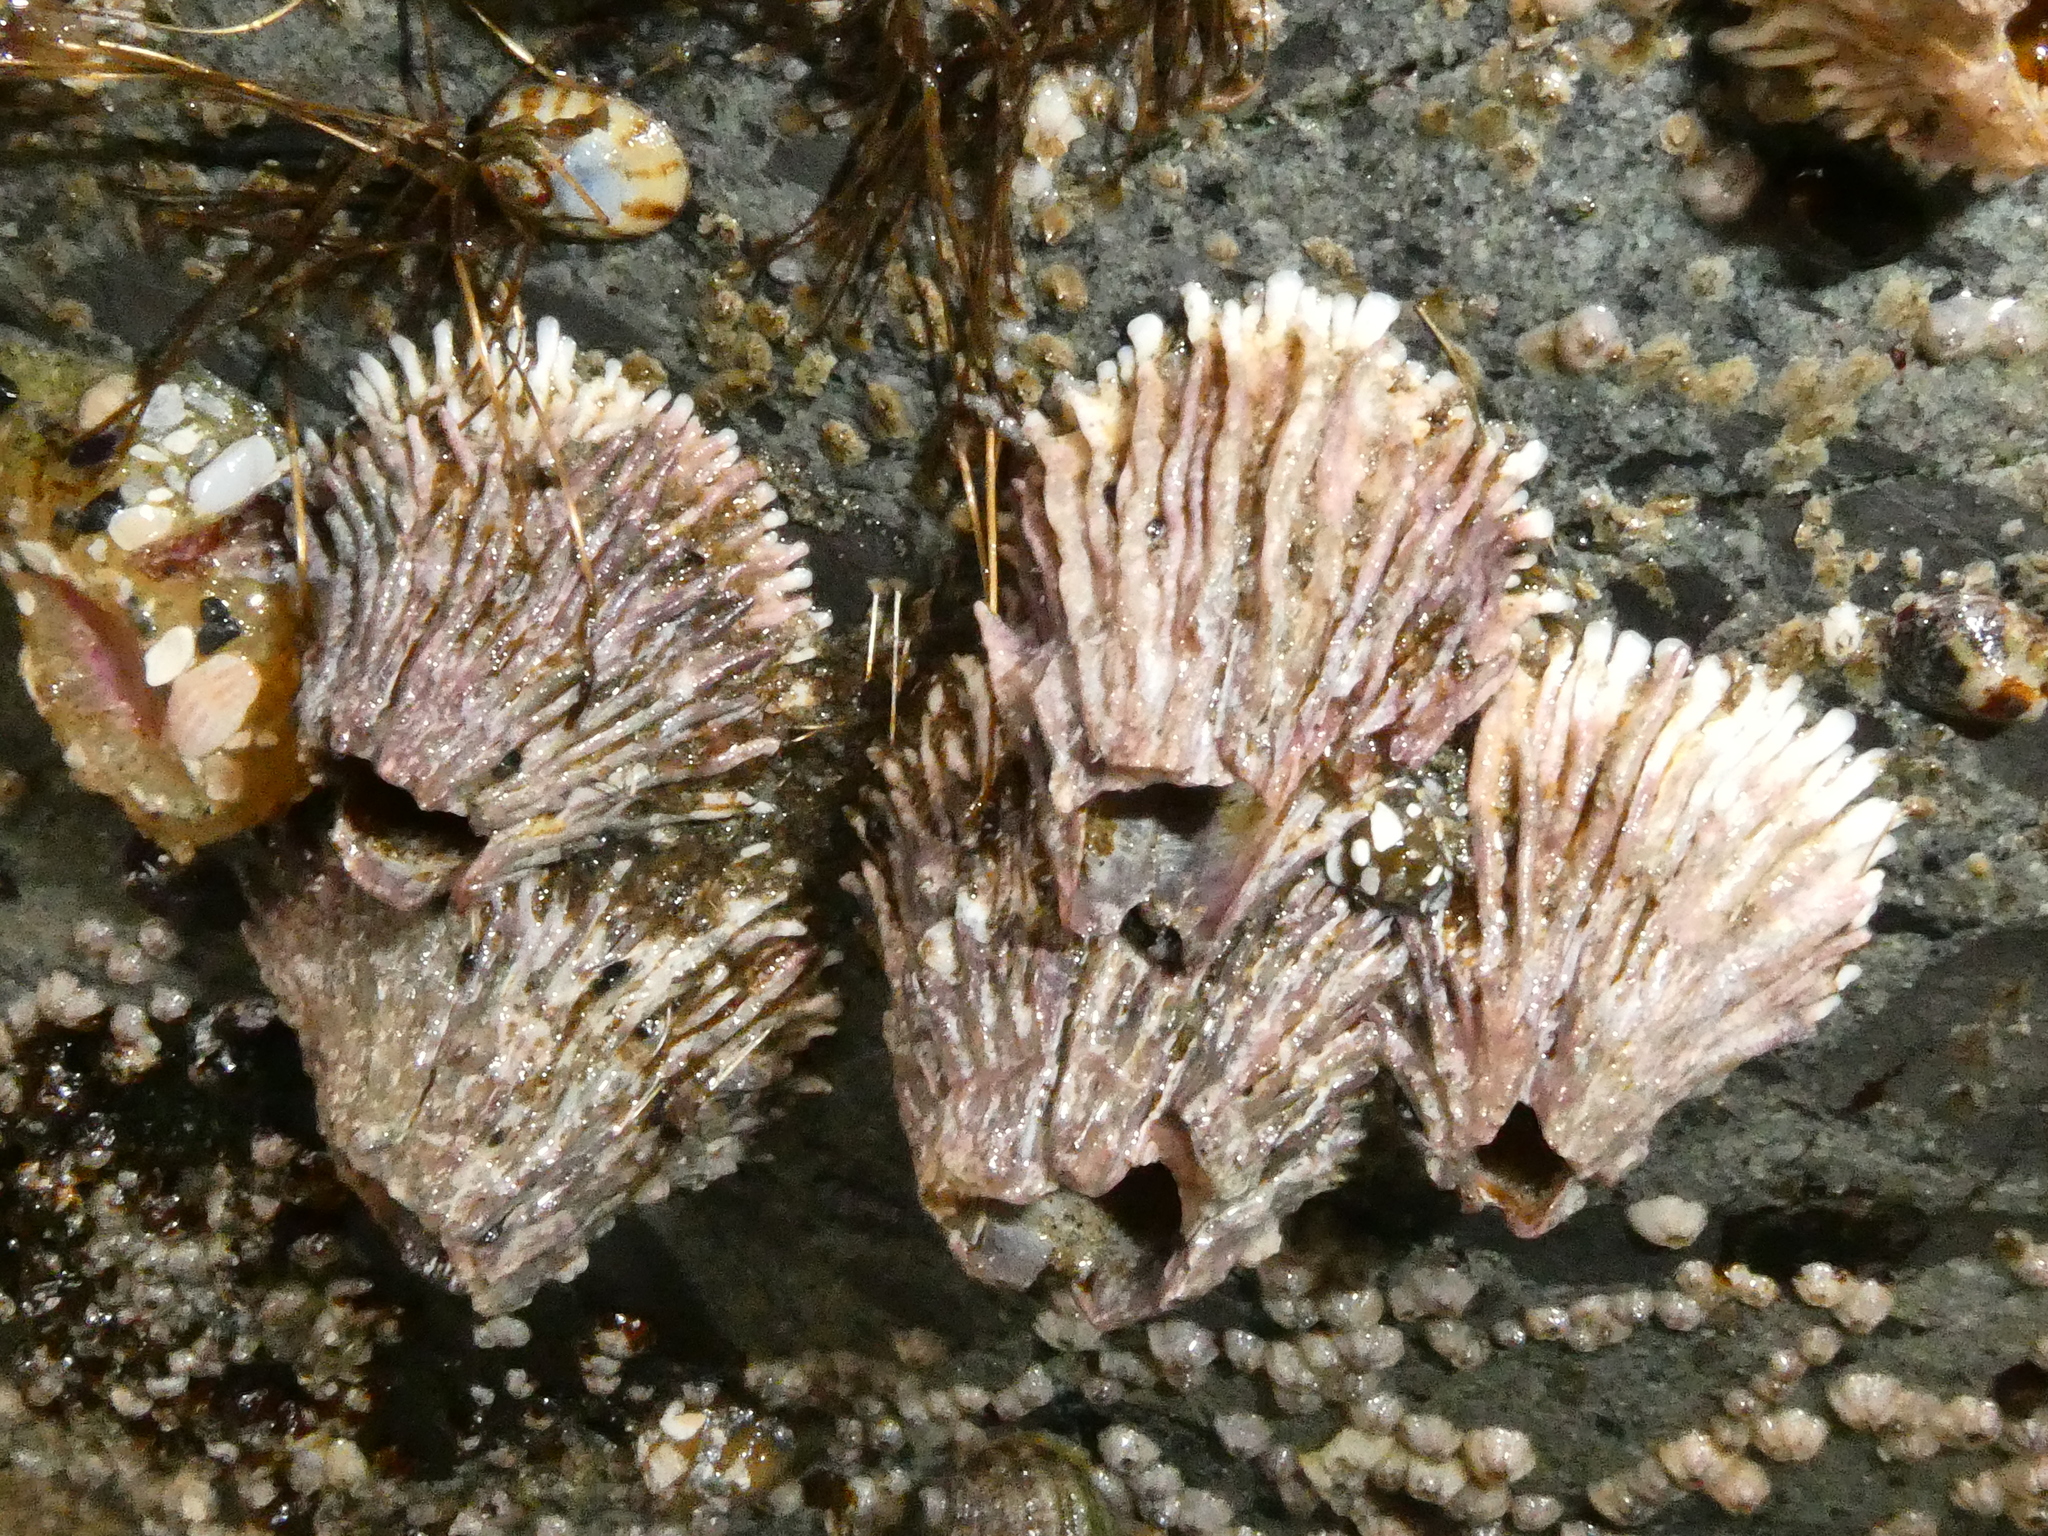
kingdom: Animalia
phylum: Arthropoda
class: Maxillopoda
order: Sessilia
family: Archaeobalanidae
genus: Semibalanus
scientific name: Semibalanus cariosus
